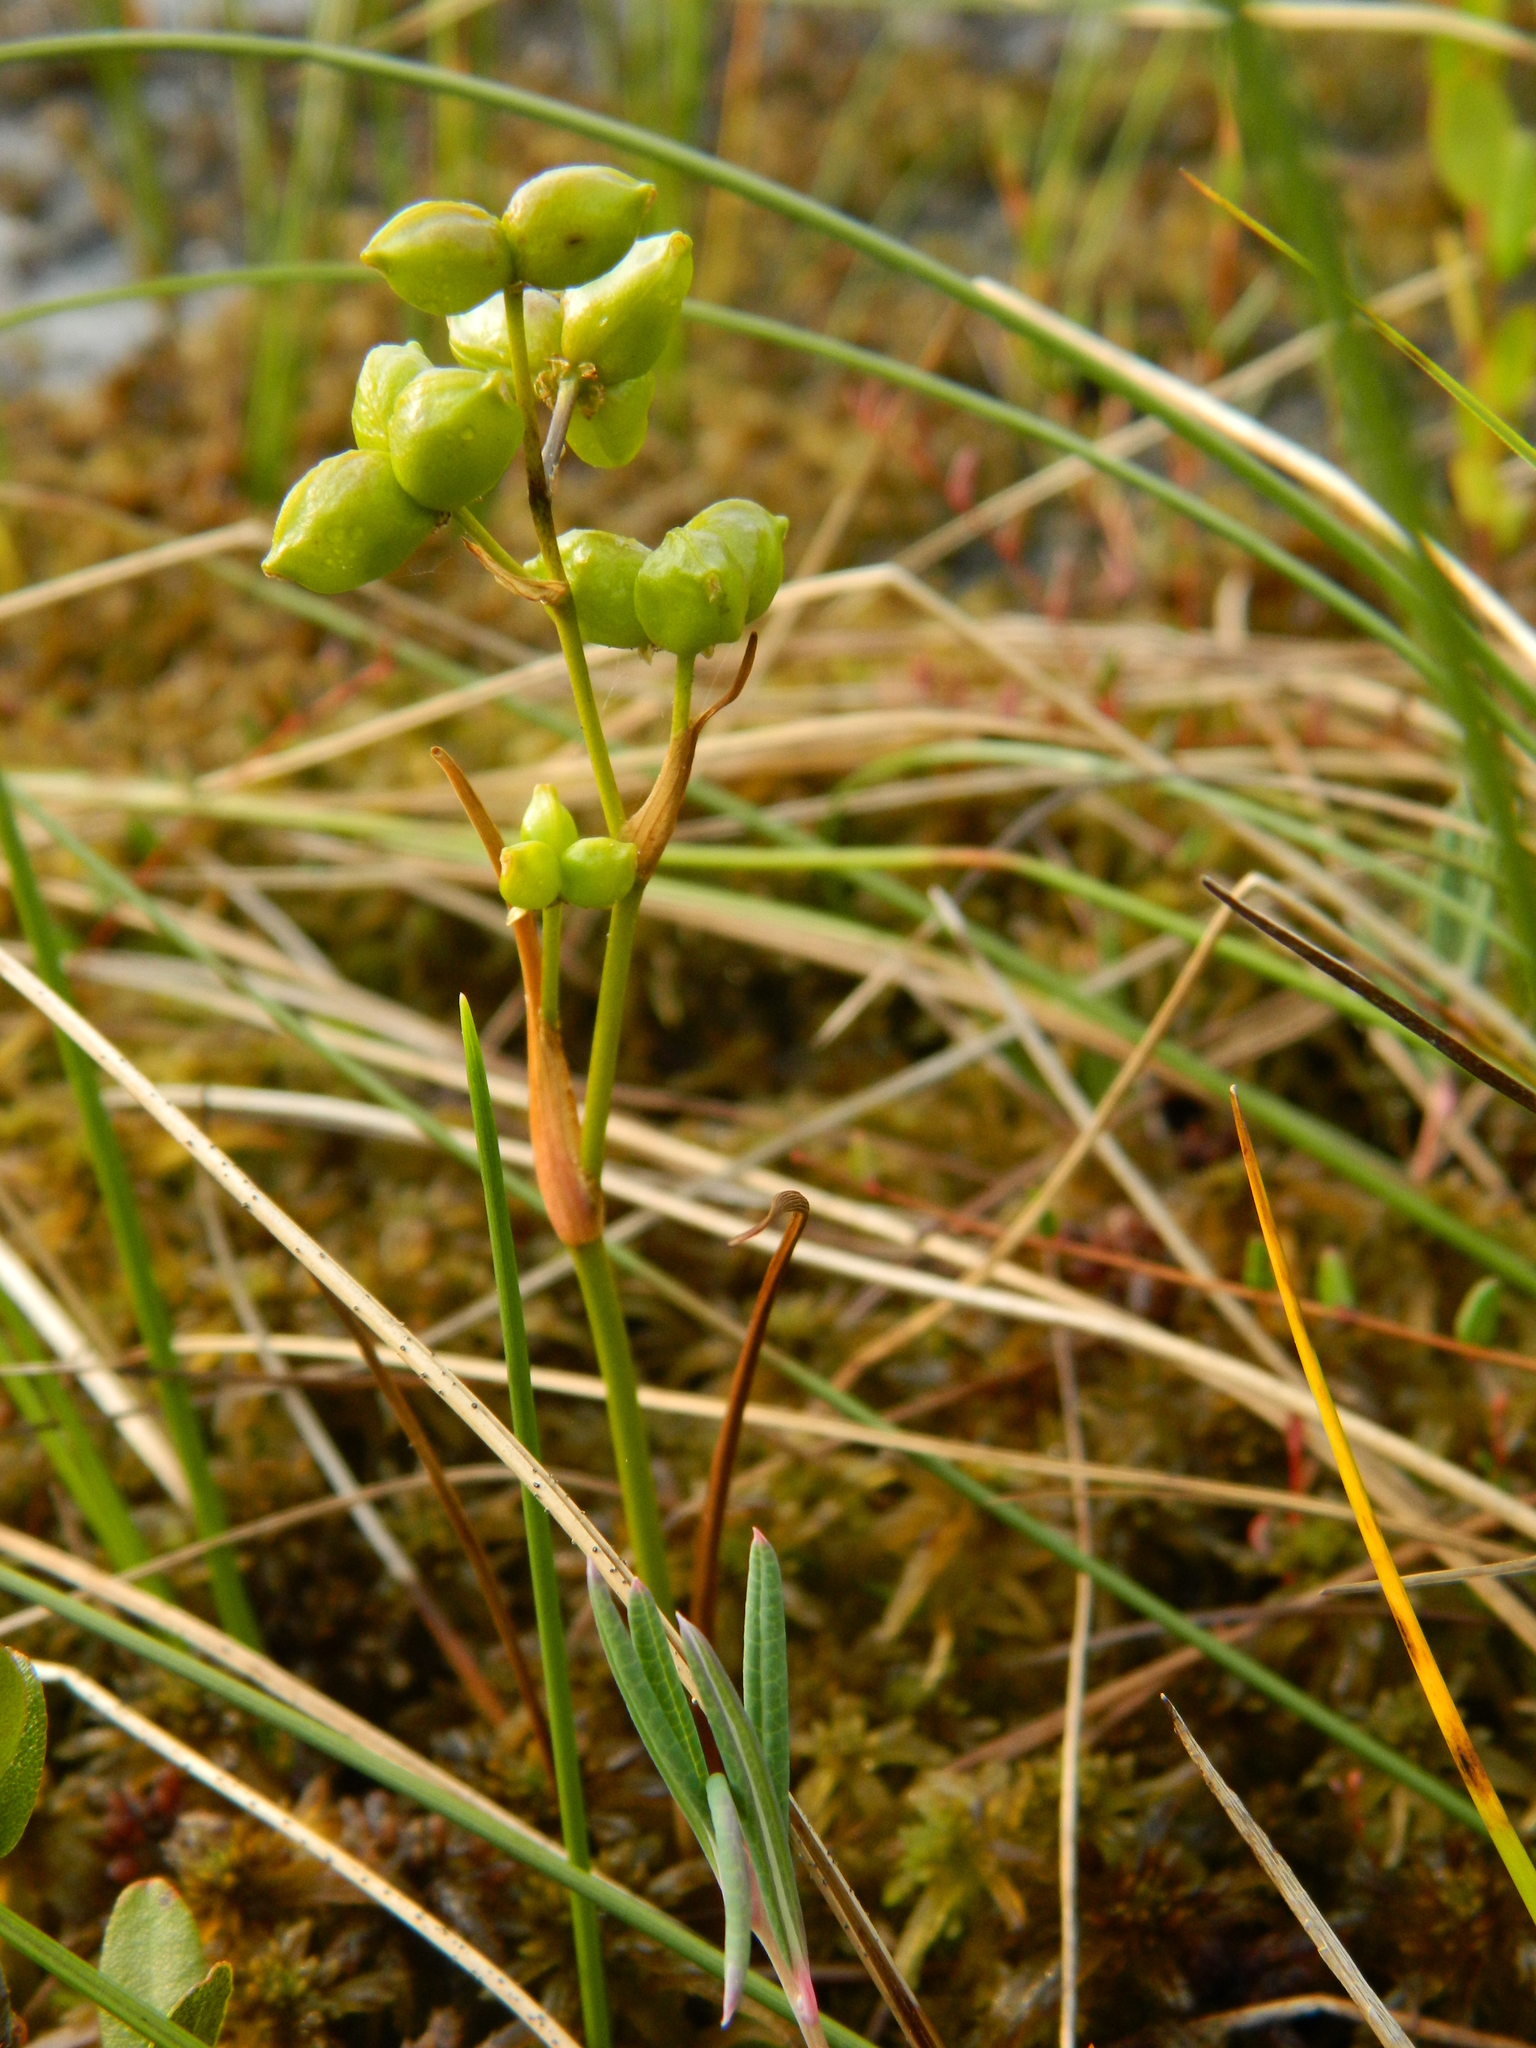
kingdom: Plantae
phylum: Tracheophyta
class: Liliopsida
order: Alismatales
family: Scheuchzeriaceae
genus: Scheuchzeria
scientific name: Scheuchzeria palustris
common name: Rannoch-rush
